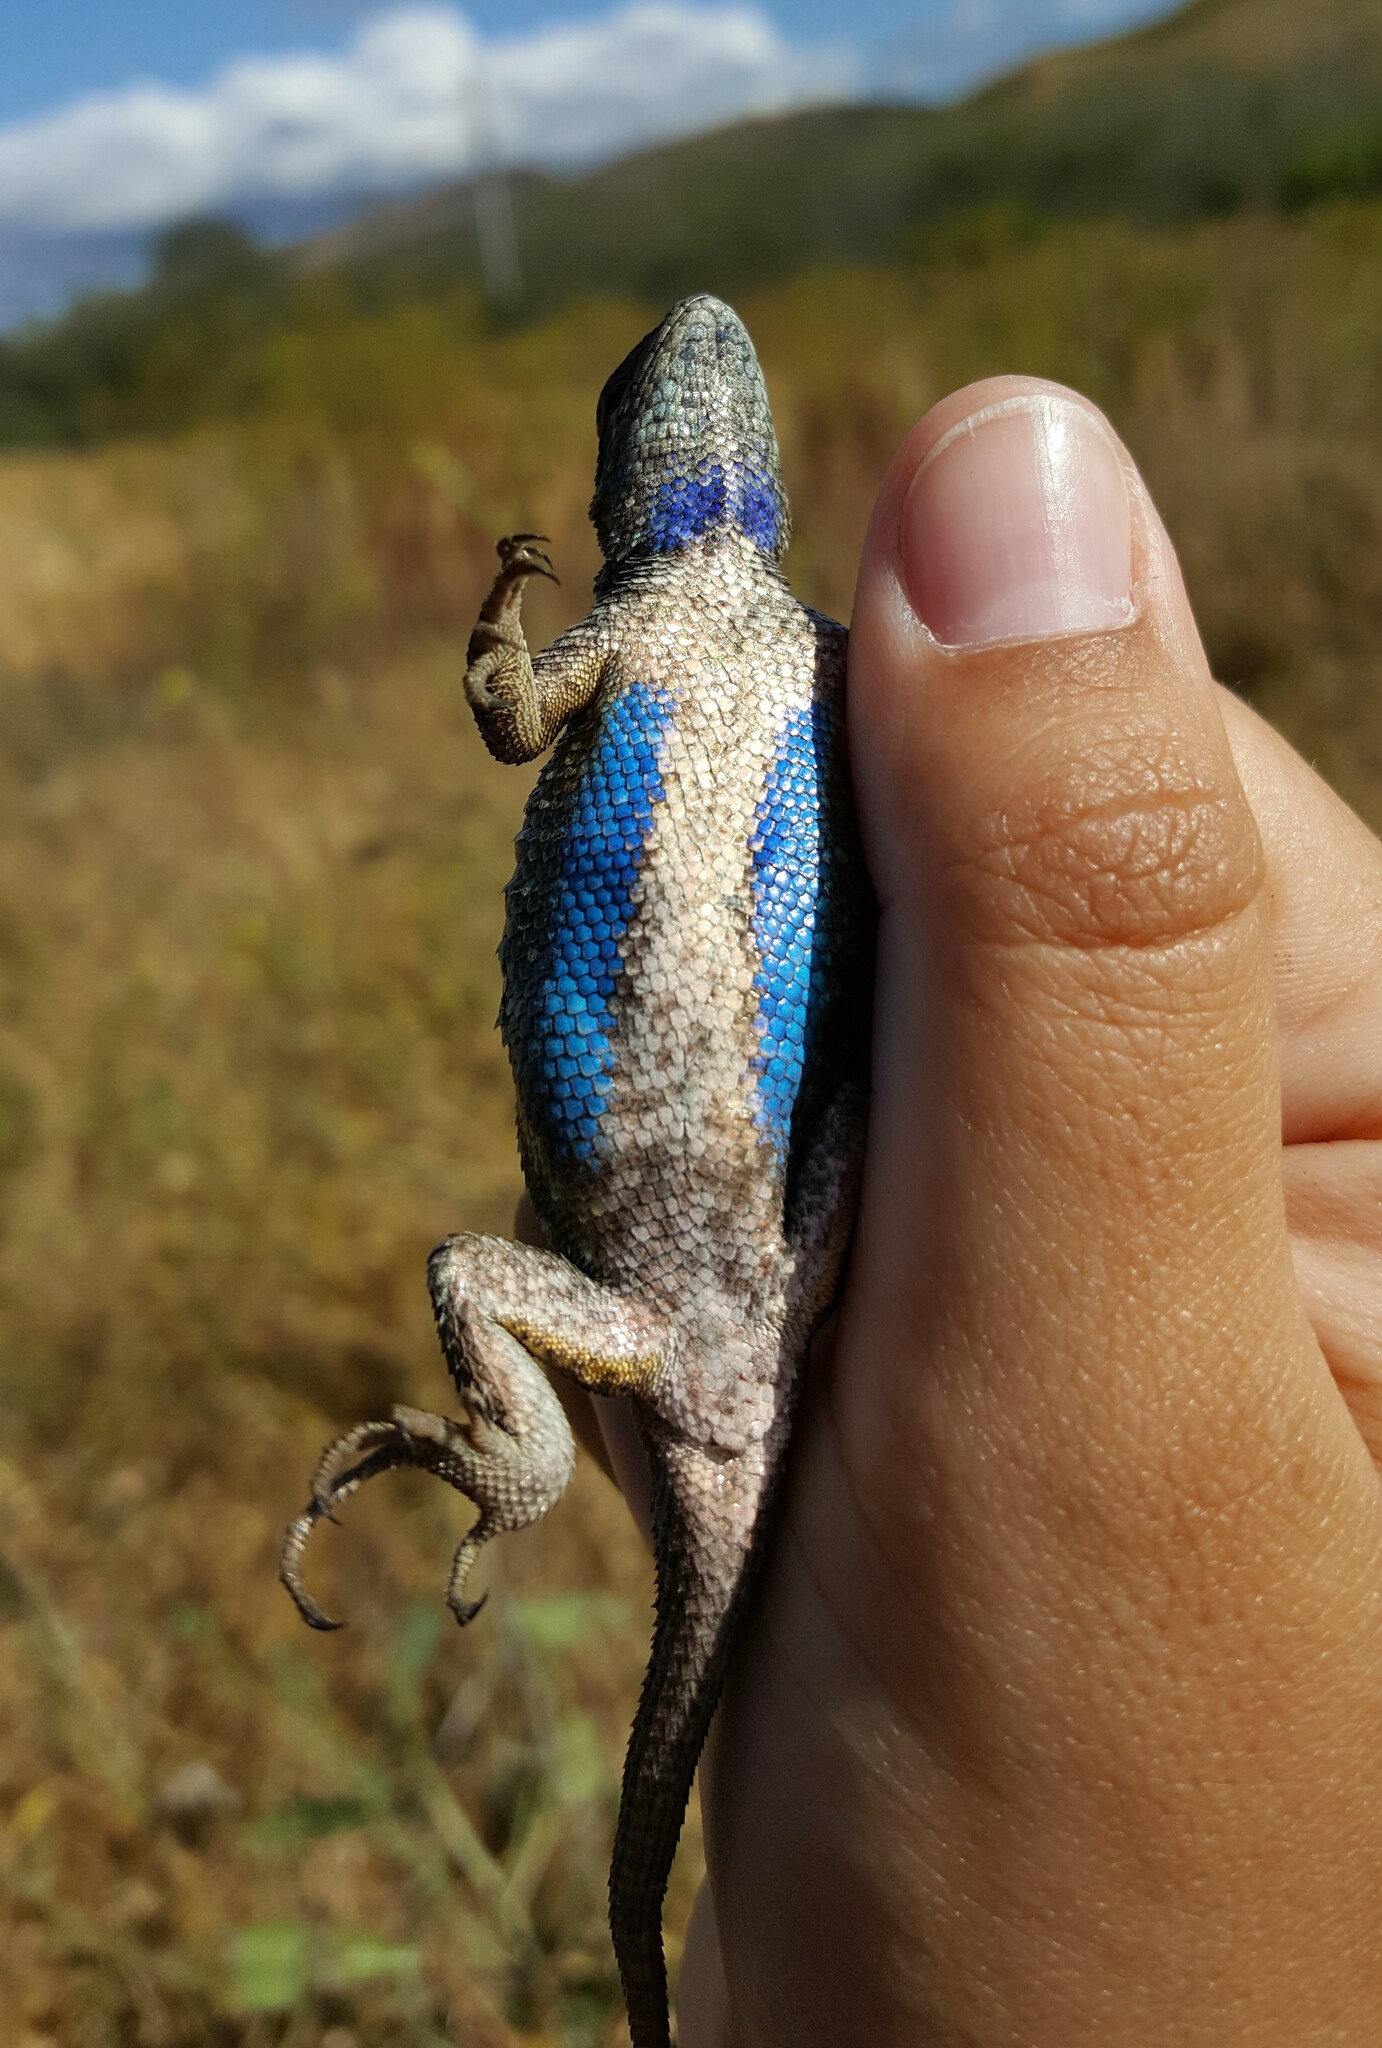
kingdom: Animalia
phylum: Chordata
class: Squamata
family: Phrynosomatidae
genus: Sceloporus
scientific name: Sceloporus occidentalis
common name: Western fence lizard
